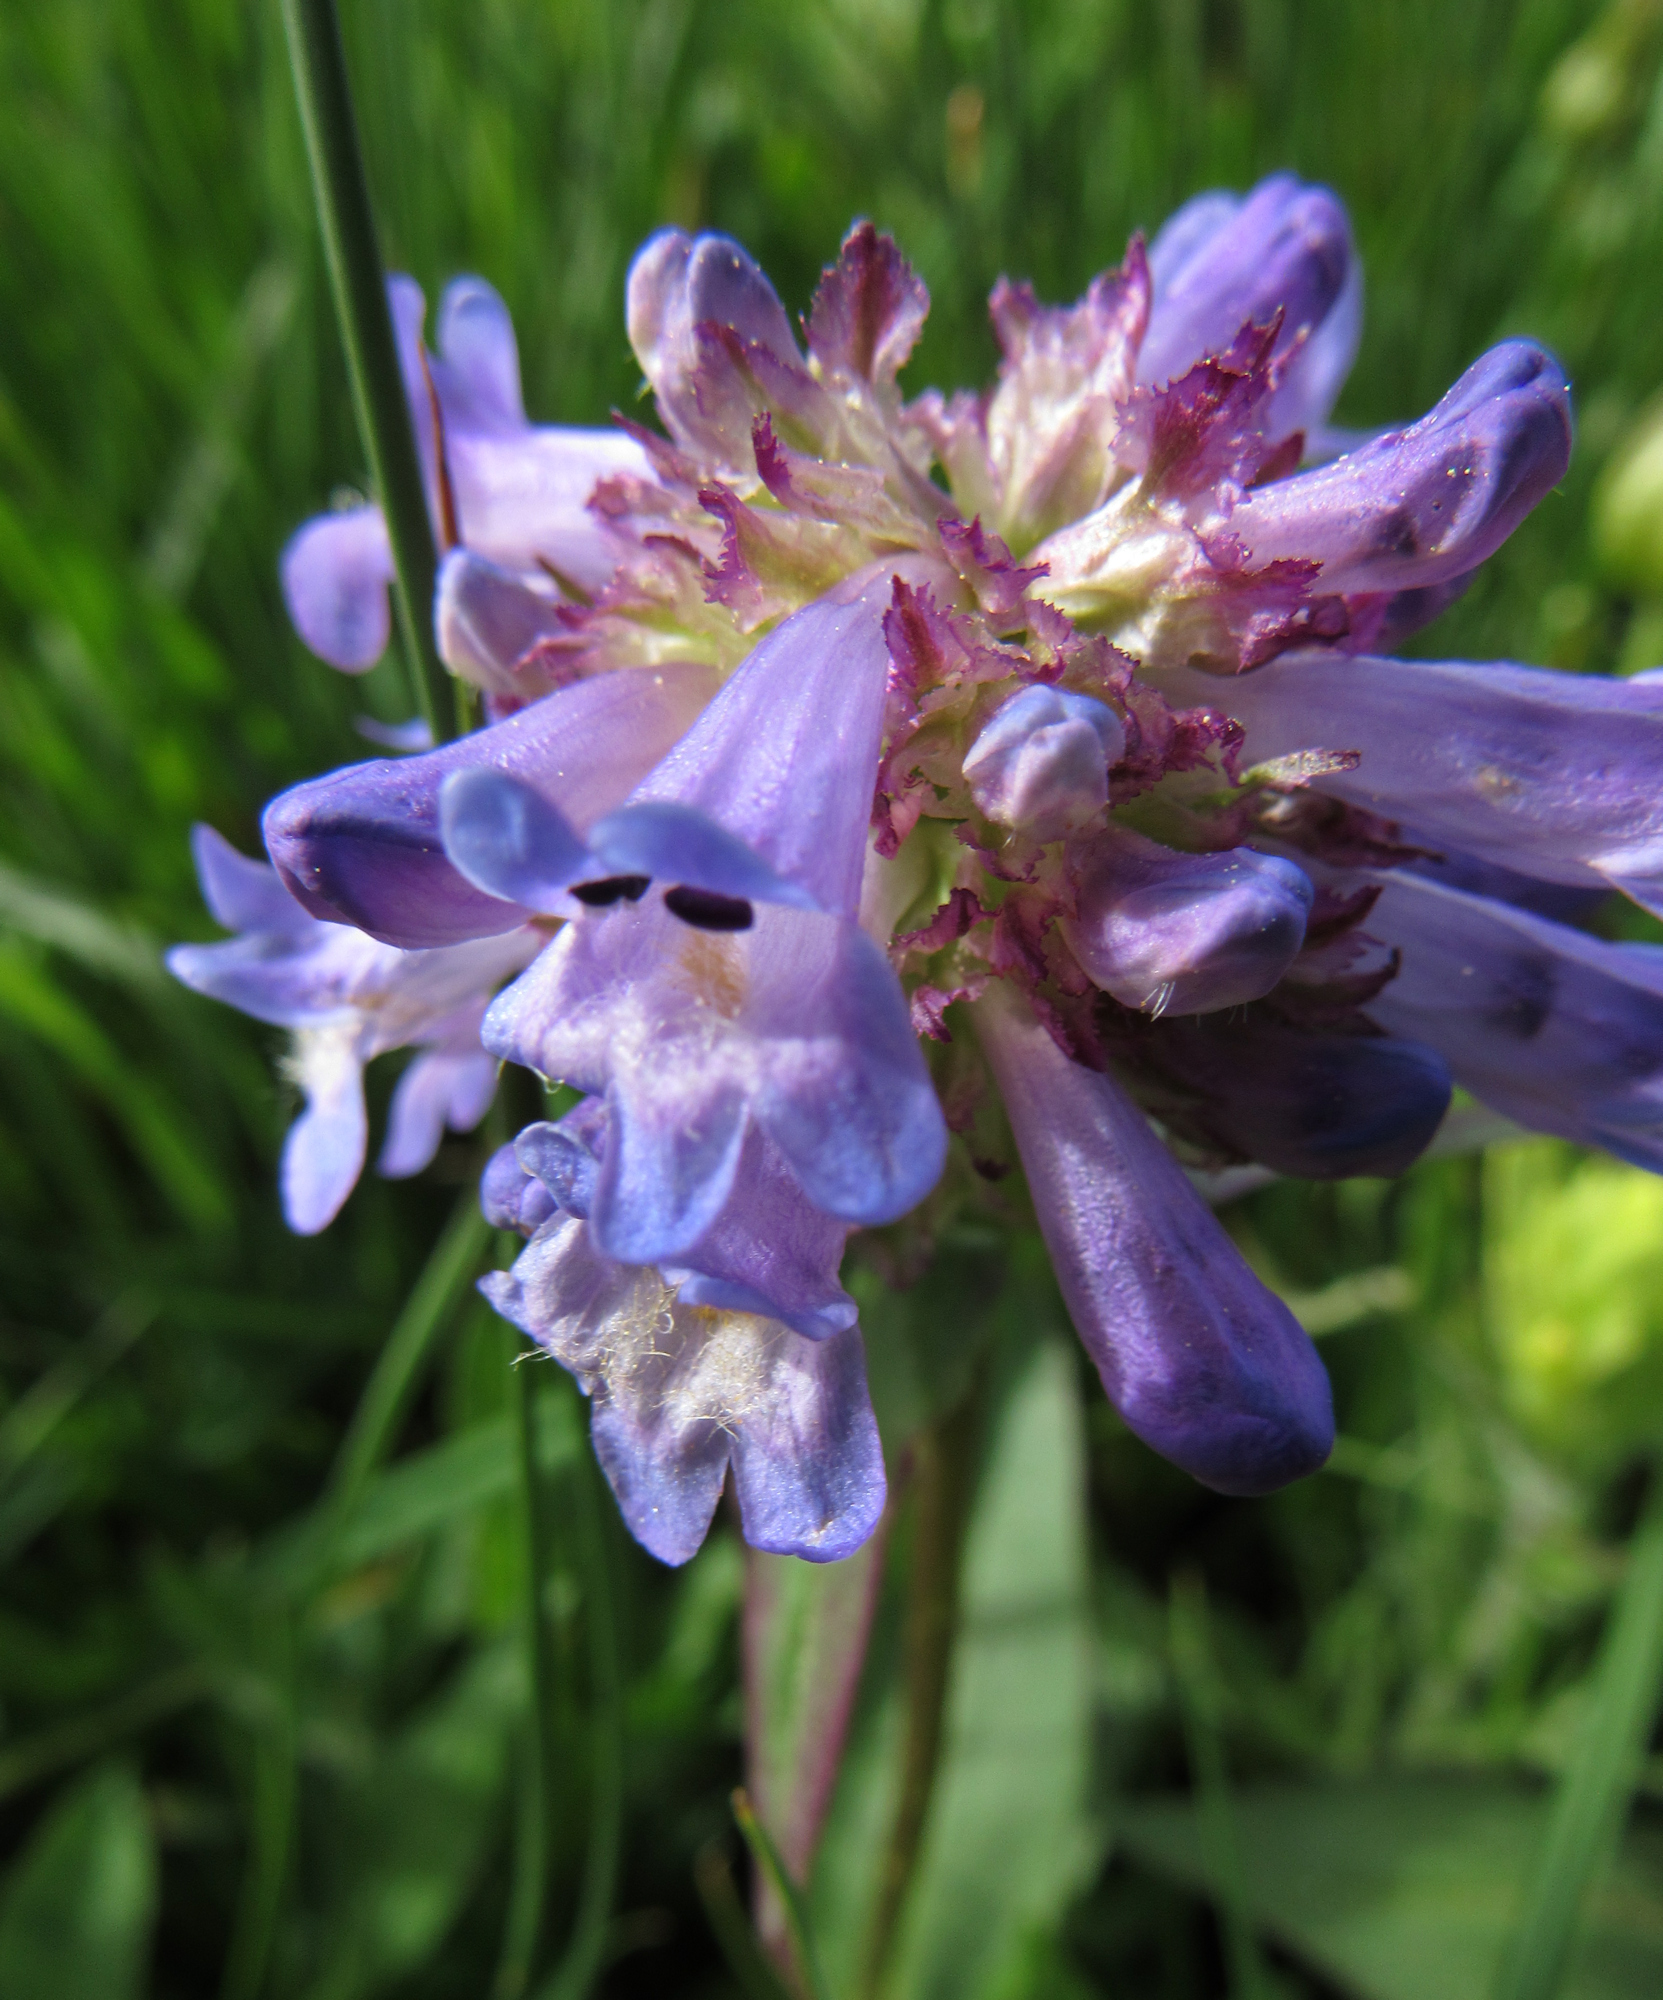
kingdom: Plantae
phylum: Tracheophyta
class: Magnoliopsida
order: Lamiales
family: Plantaginaceae
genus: Penstemon
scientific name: Penstemon globosus
